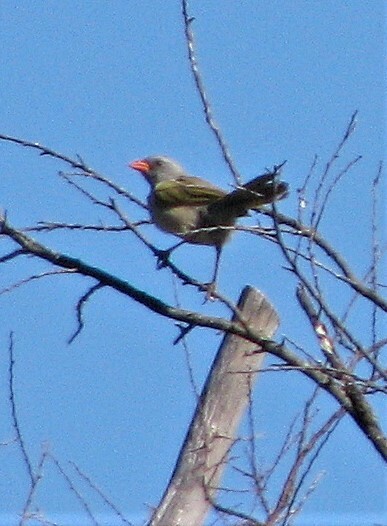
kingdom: Animalia
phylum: Chordata
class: Aves
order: Passeriformes
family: Thraupidae
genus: Embernagra
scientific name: Embernagra platensis
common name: Pampa finch
